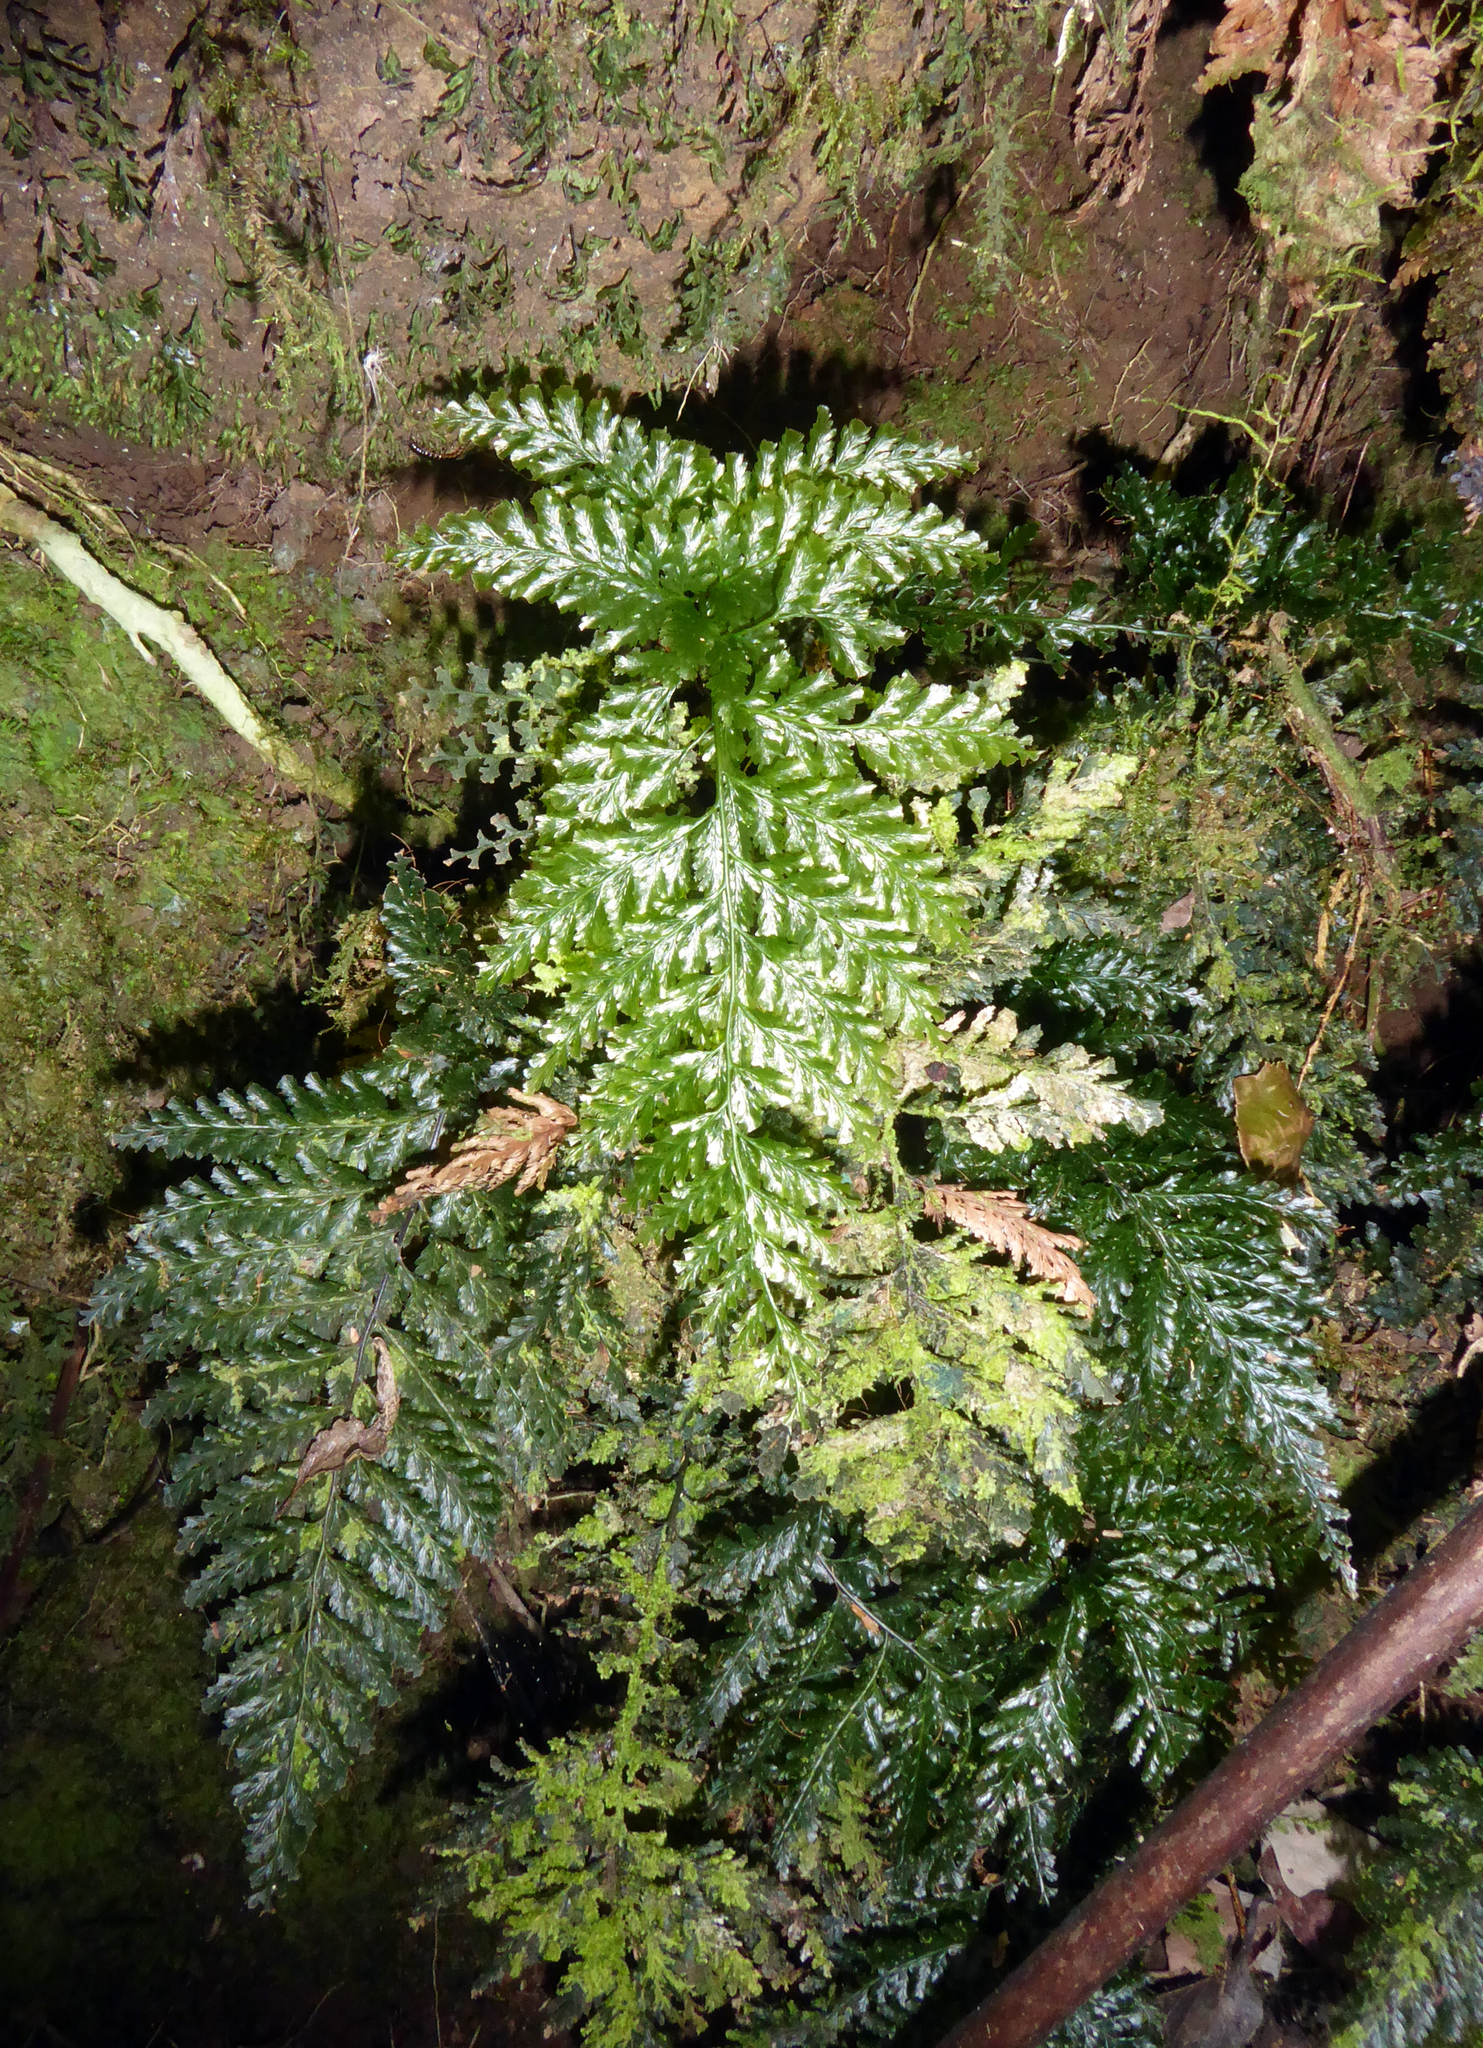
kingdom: Plantae
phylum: Tracheophyta
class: Polypodiopsida
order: Hymenophyllales
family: Hymenophyllaceae
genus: Abrodictyum
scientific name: Abrodictyum dentatum
